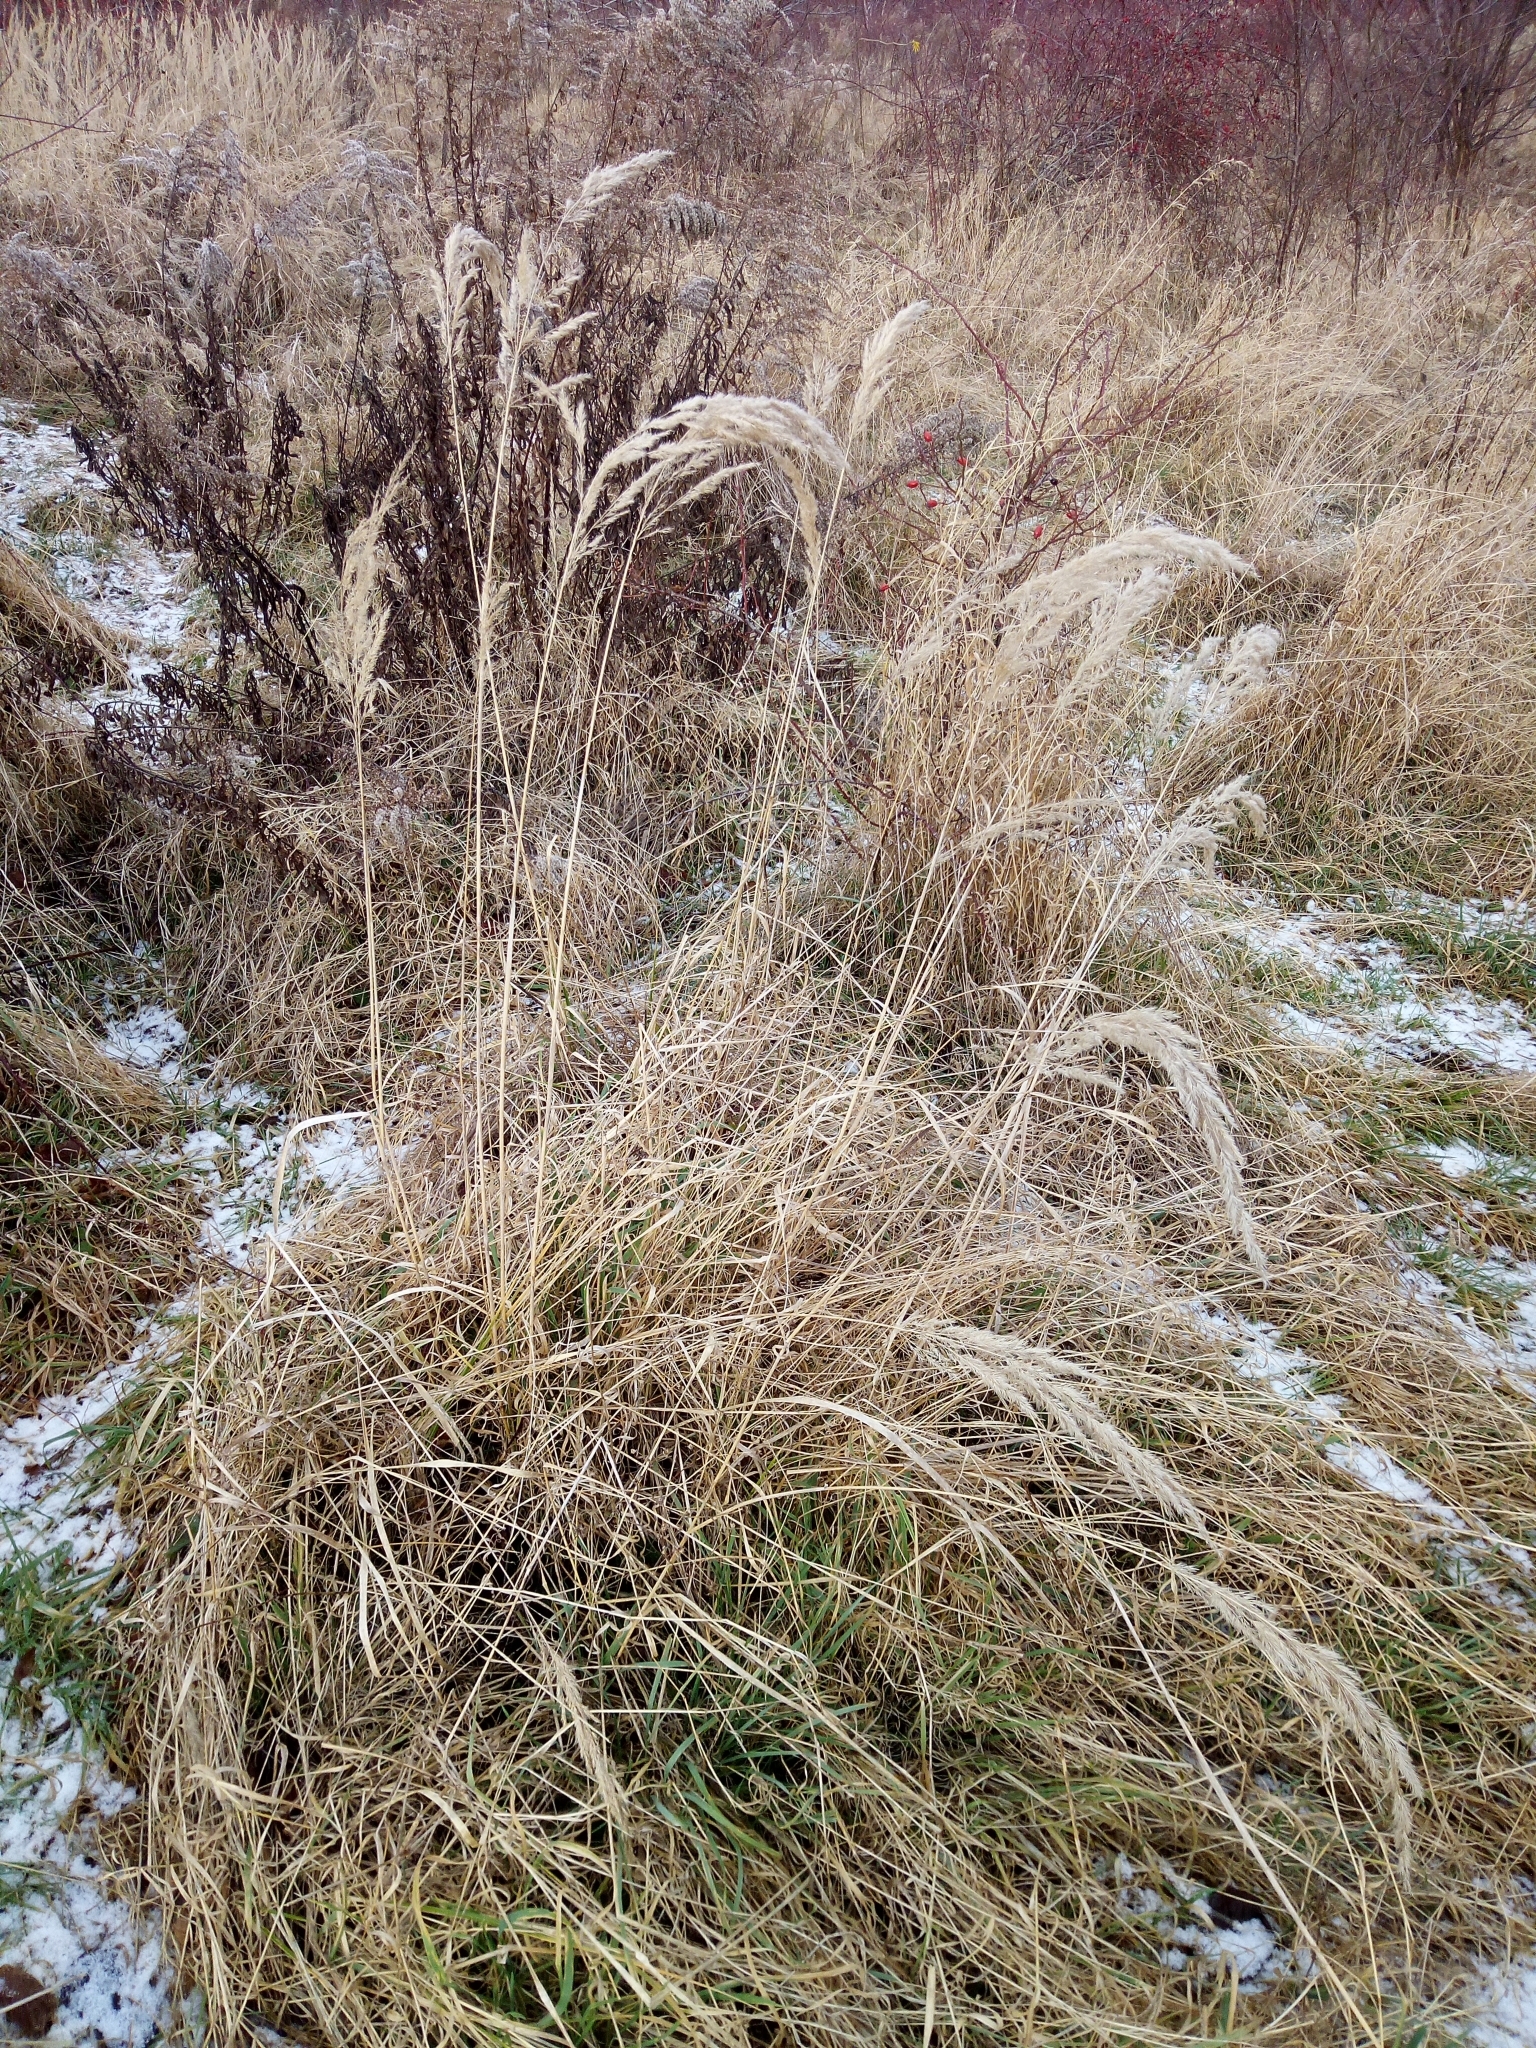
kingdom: Plantae
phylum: Tracheophyta
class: Liliopsida
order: Poales
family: Poaceae
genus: Calamagrostis
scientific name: Calamagrostis epigejos
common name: Wood small-reed
